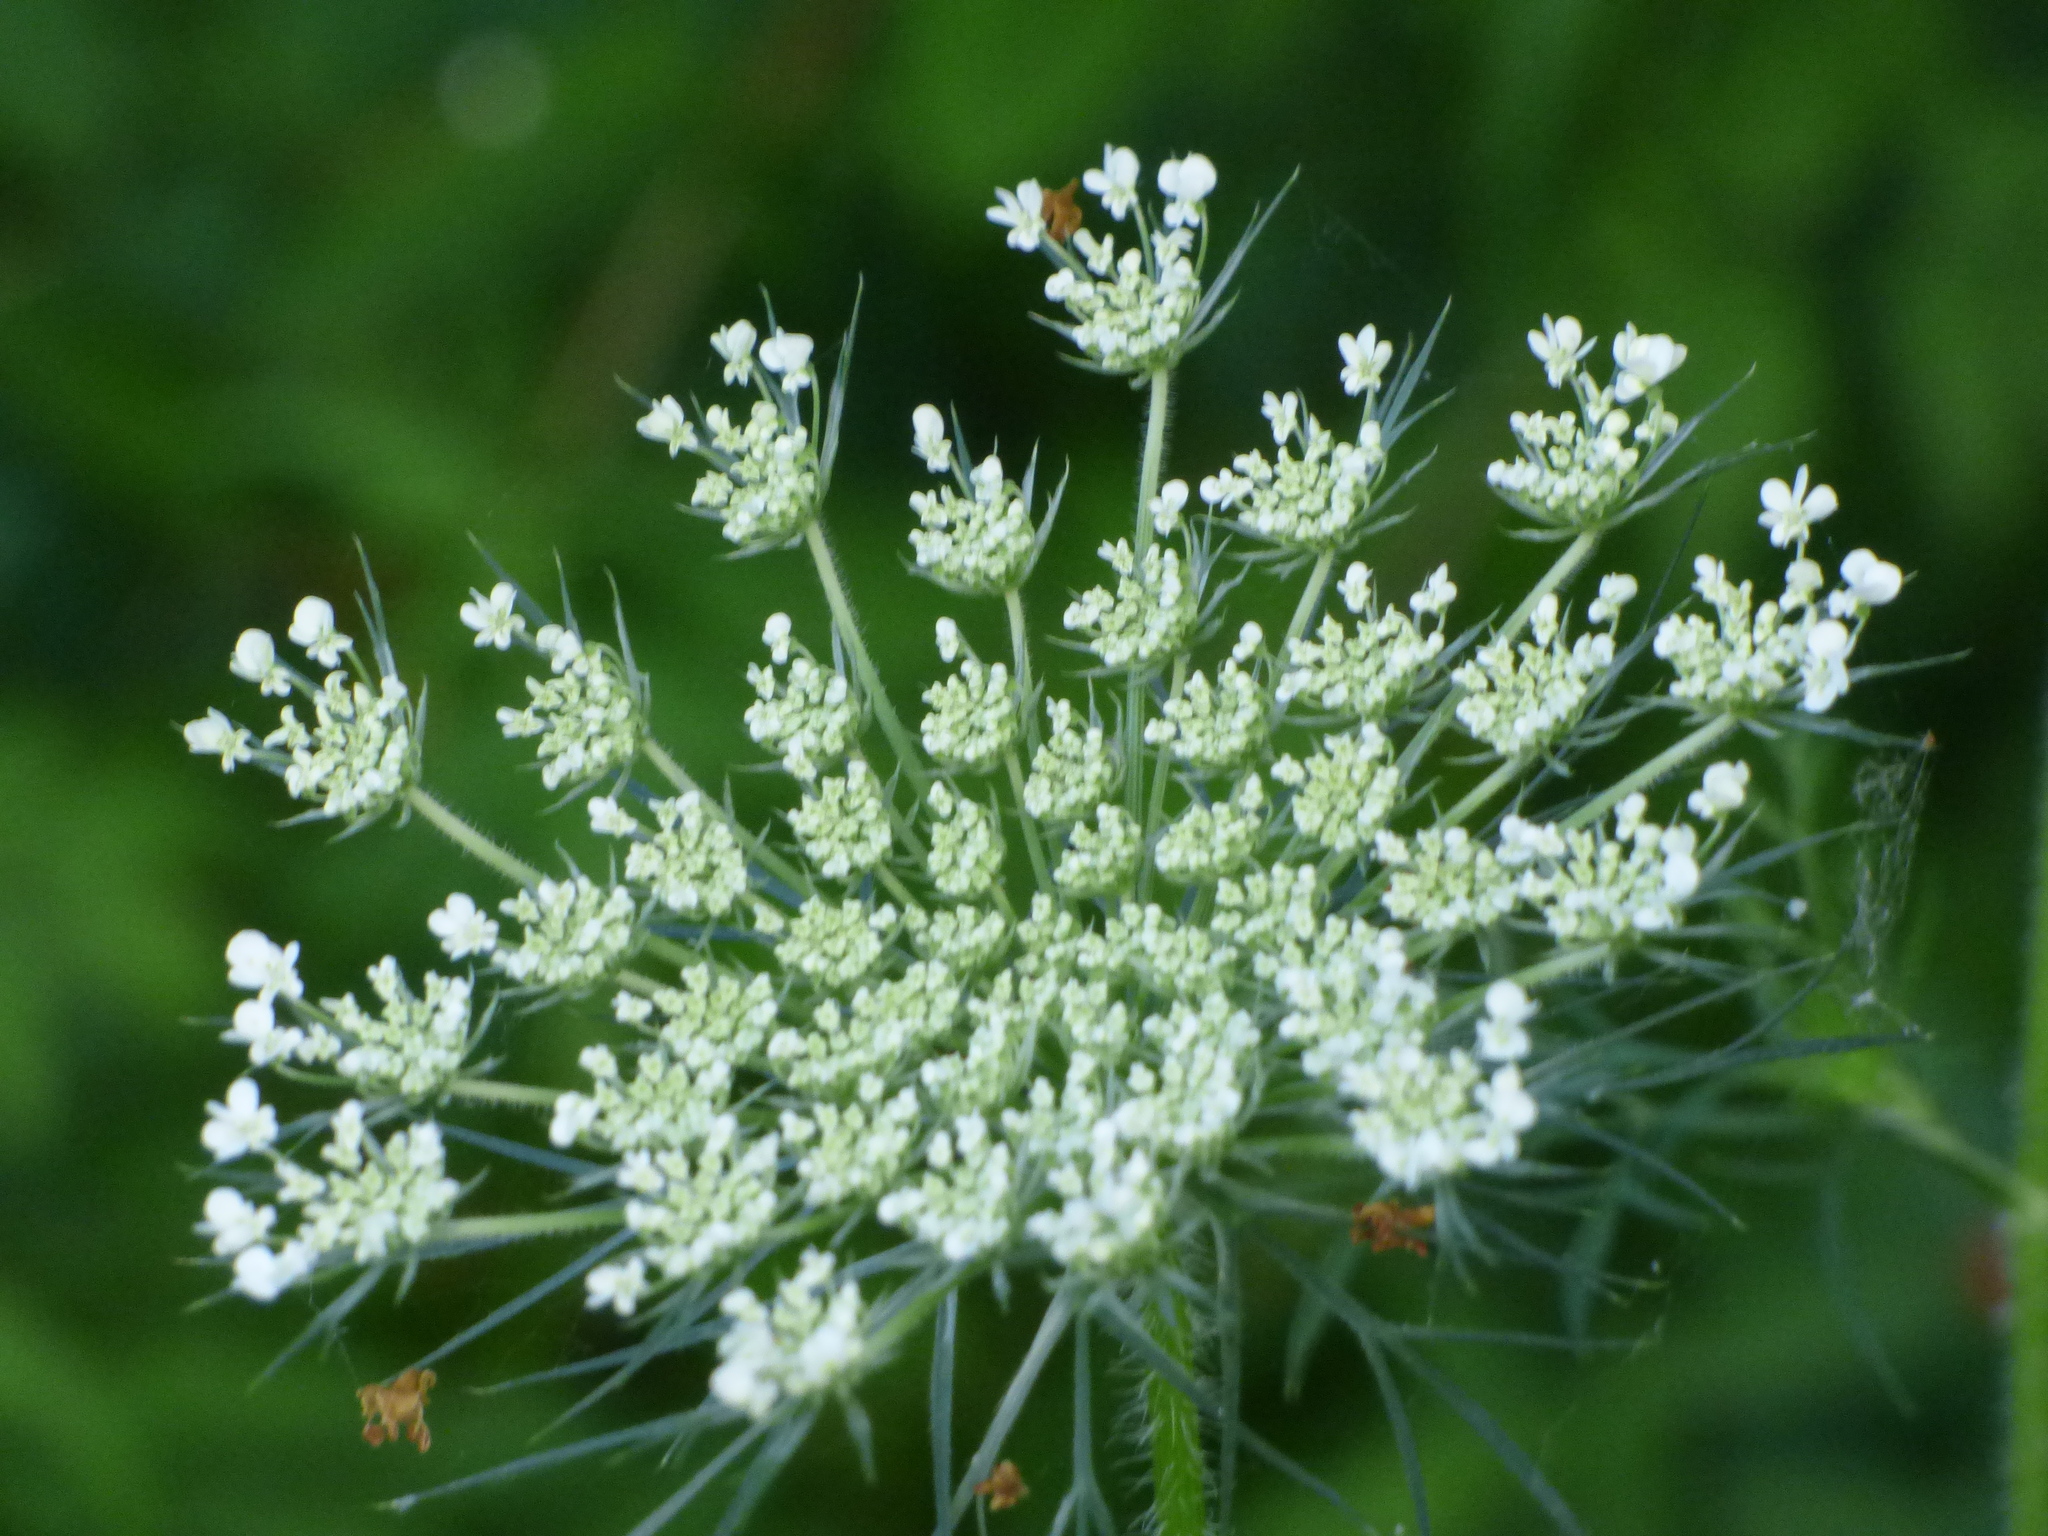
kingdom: Plantae
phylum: Tracheophyta
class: Magnoliopsida
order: Apiales
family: Apiaceae
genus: Daucus
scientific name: Daucus carota
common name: Wild carrot
